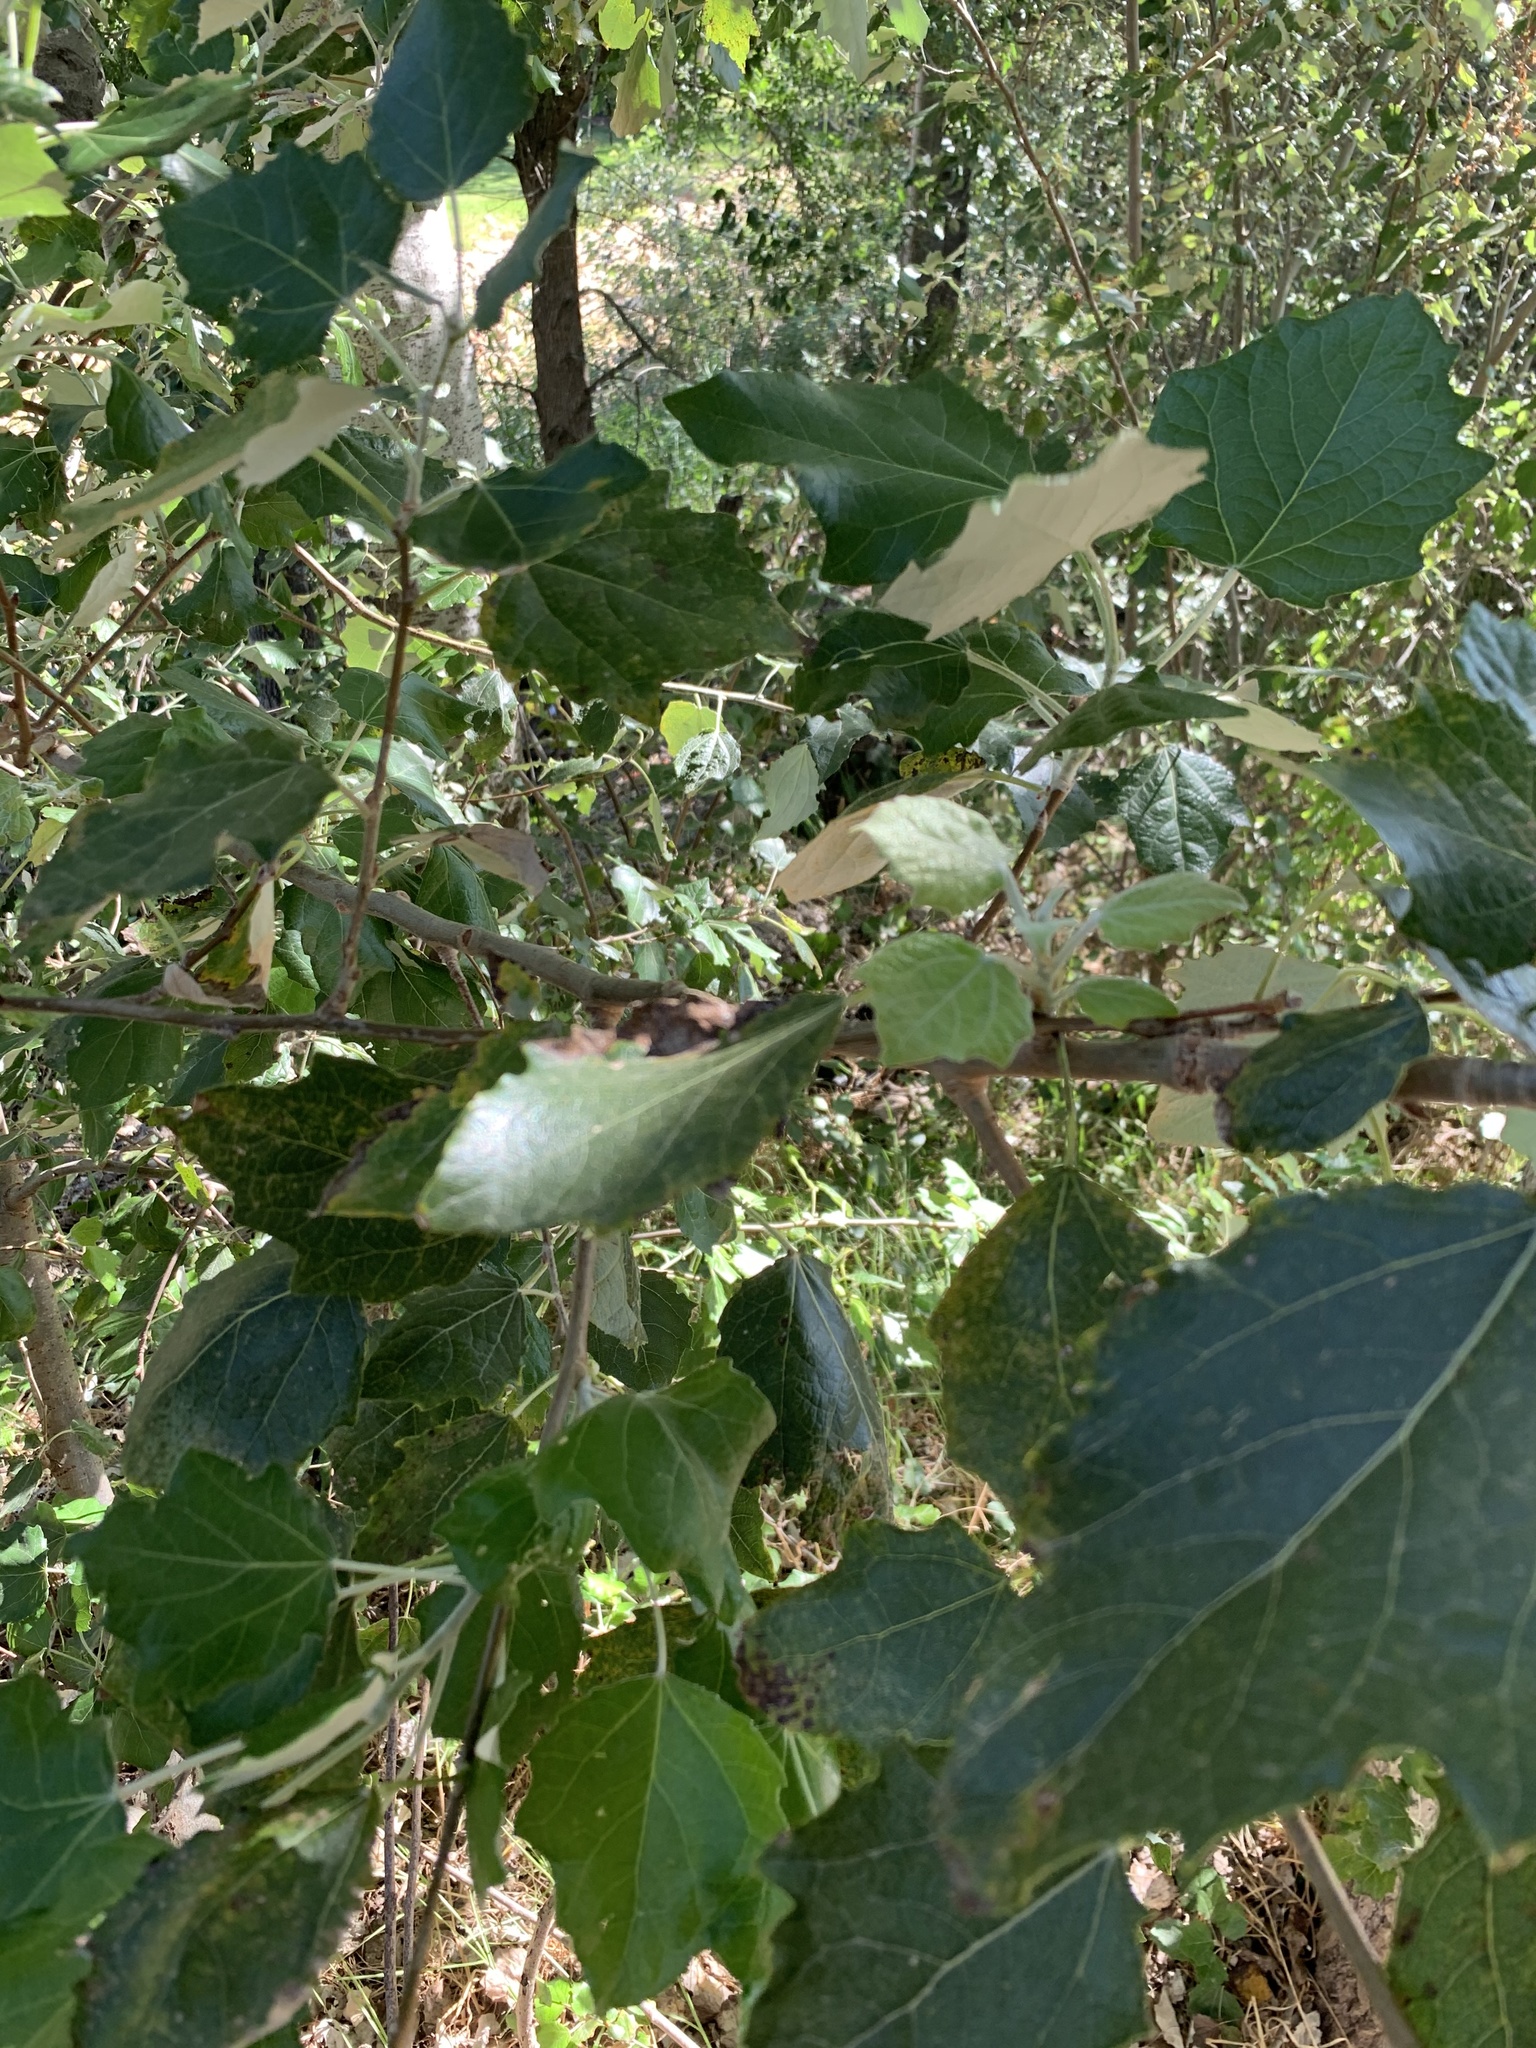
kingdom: Plantae
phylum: Tracheophyta
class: Magnoliopsida
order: Malpighiales
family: Salicaceae
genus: Populus
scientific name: Populus canescens
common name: Gray poplar
